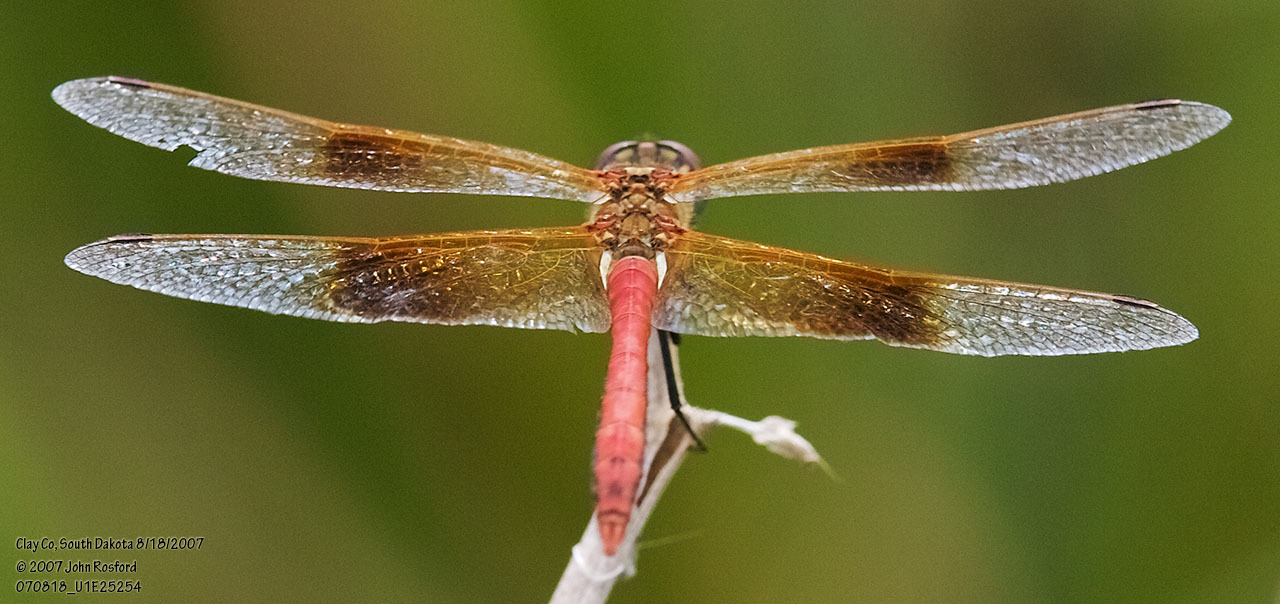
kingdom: Animalia
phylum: Arthropoda
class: Insecta
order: Odonata
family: Libellulidae
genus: Sympetrum
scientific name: Sympetrum semicinctum
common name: Band-winged meadowhawk
